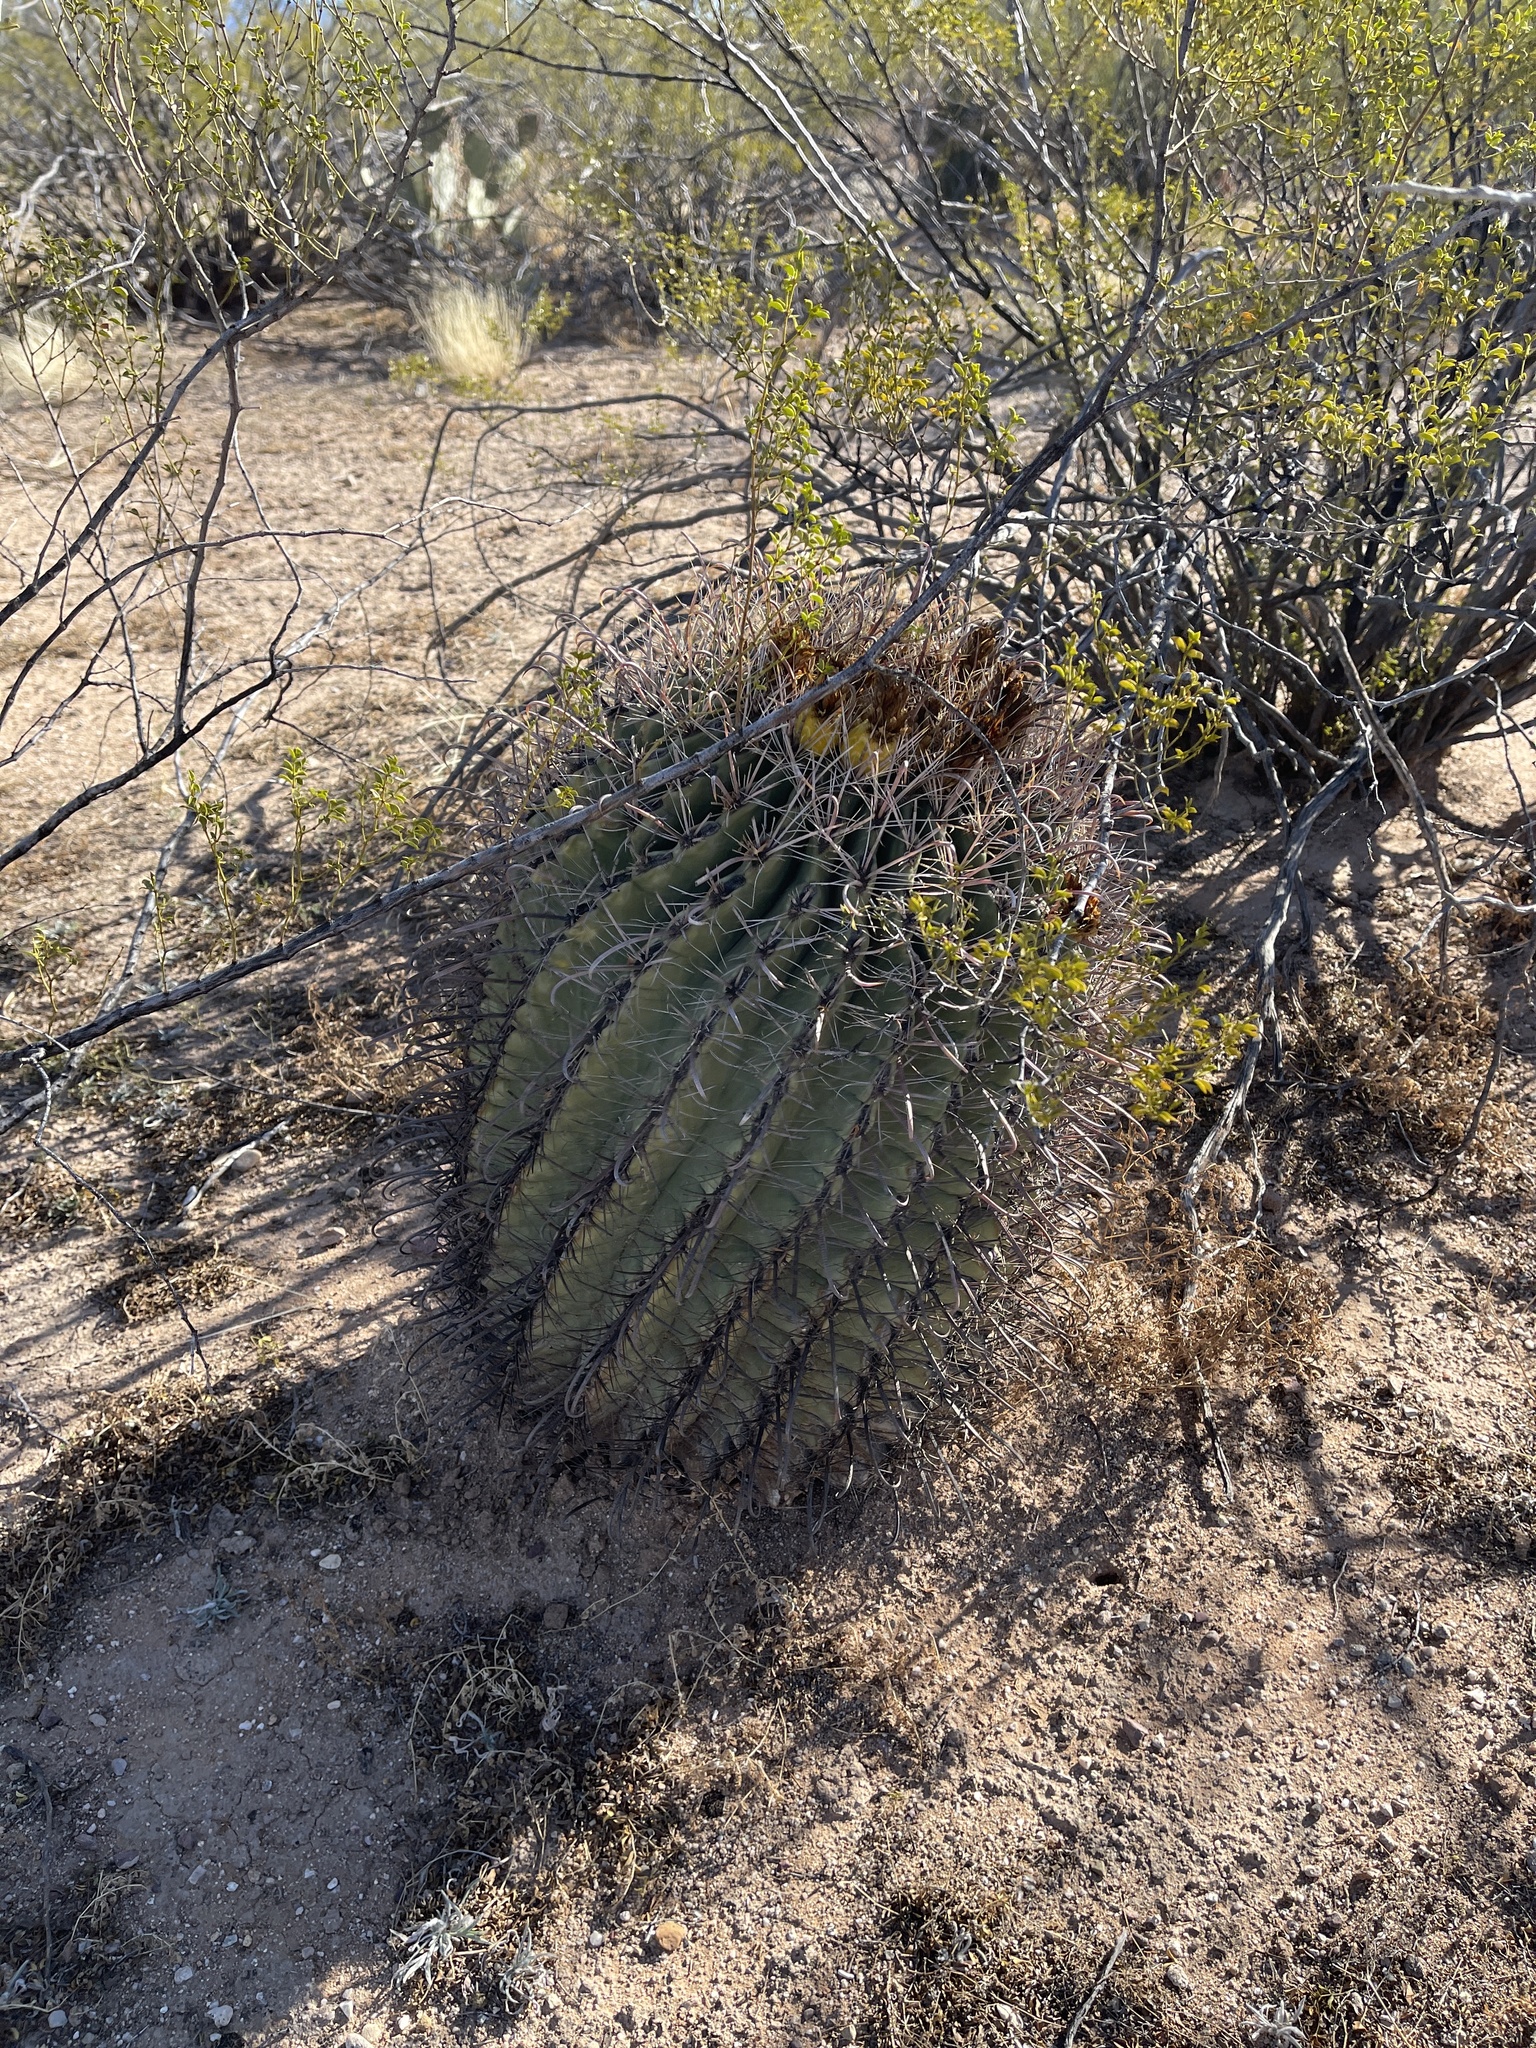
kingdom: Plantae
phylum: Tracheophyta
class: Magnoliopsida
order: Caryophyllales
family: Cactaceae
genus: Ferocactus
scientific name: Ferocactus wislizeni
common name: Candy barrel cactus
